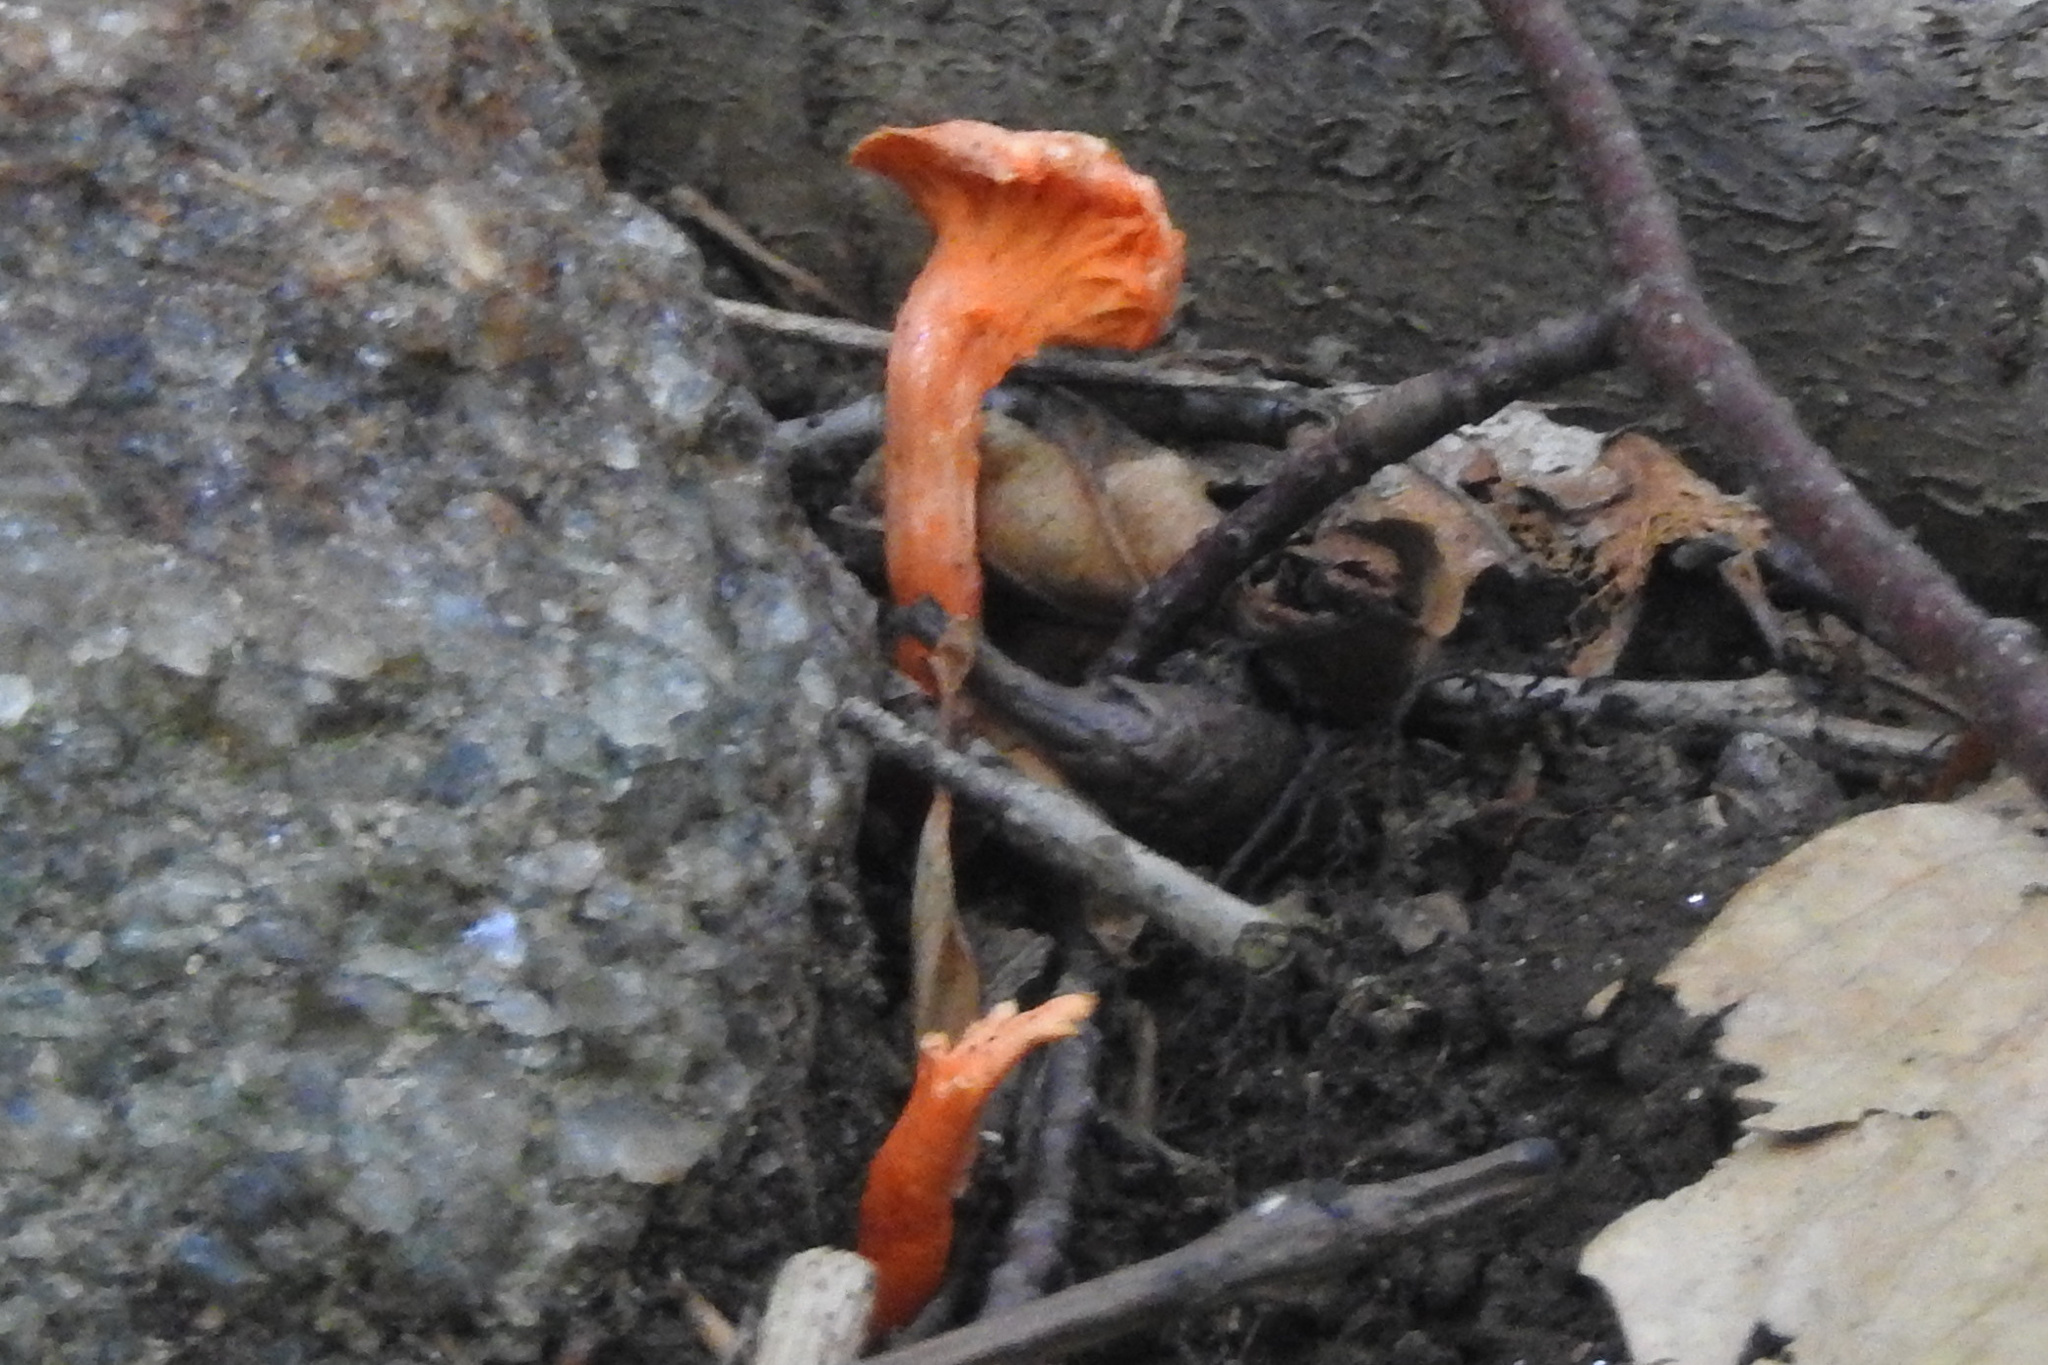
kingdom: Fungi
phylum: Basidiomycota
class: Agaricomycetes
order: Cantharellales
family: Hydnaceae
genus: Cantharellus
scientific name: Cantharellus cinnabarinus
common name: Cinnabar chanterelle
